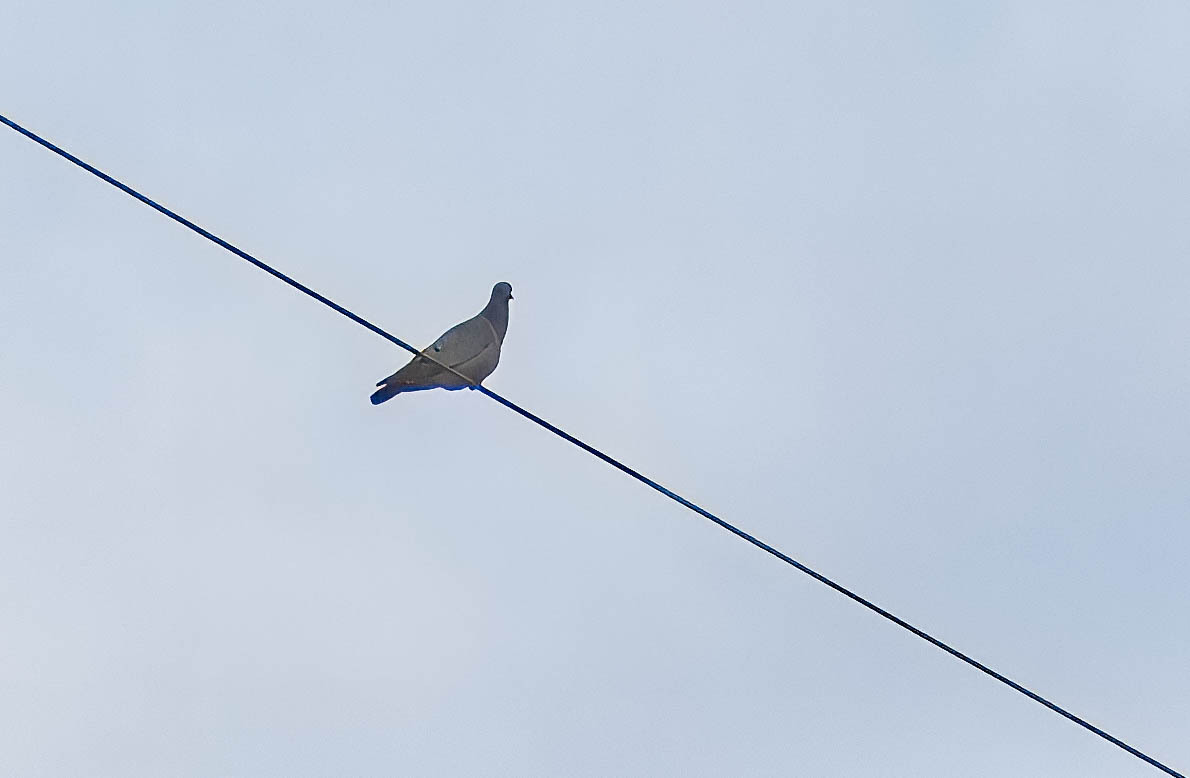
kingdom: Animalia
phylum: Chordata
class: Aves
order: Columbiformes
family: Columbidae
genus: Columba
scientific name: Columba oenas
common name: Stock dove
